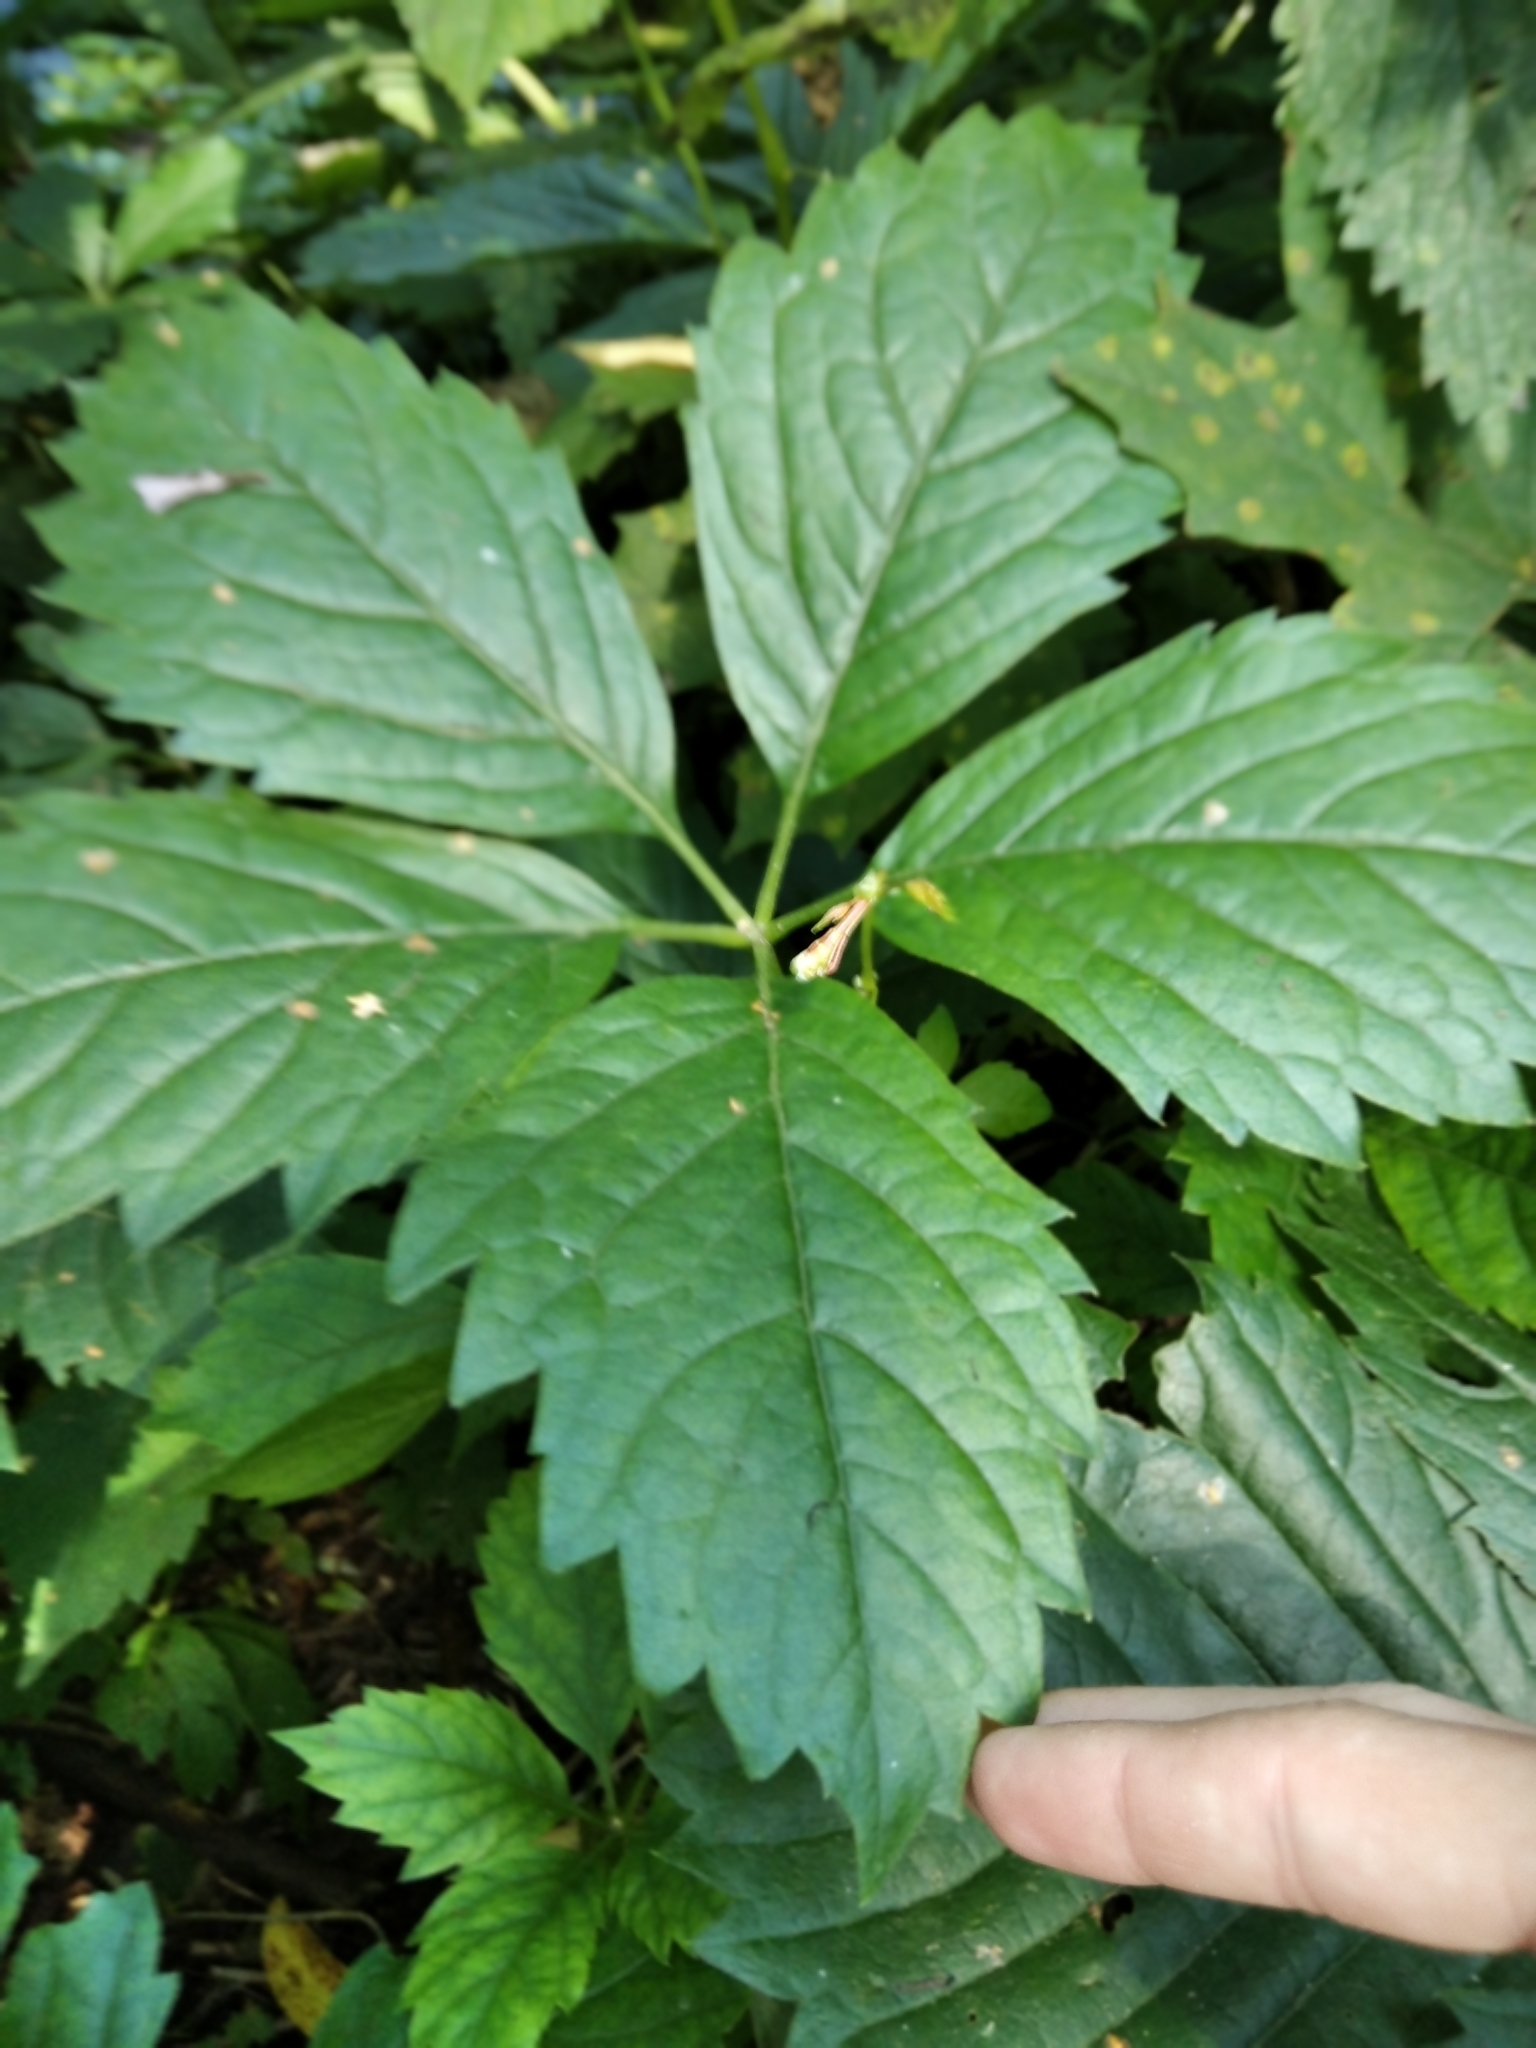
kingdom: Plantae
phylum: Tracheophyta
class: Magnoliopsida
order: Vitales
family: Vitaceae
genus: Parthenocissus
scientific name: Parthenocissus inserta
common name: False virginia-creeper
